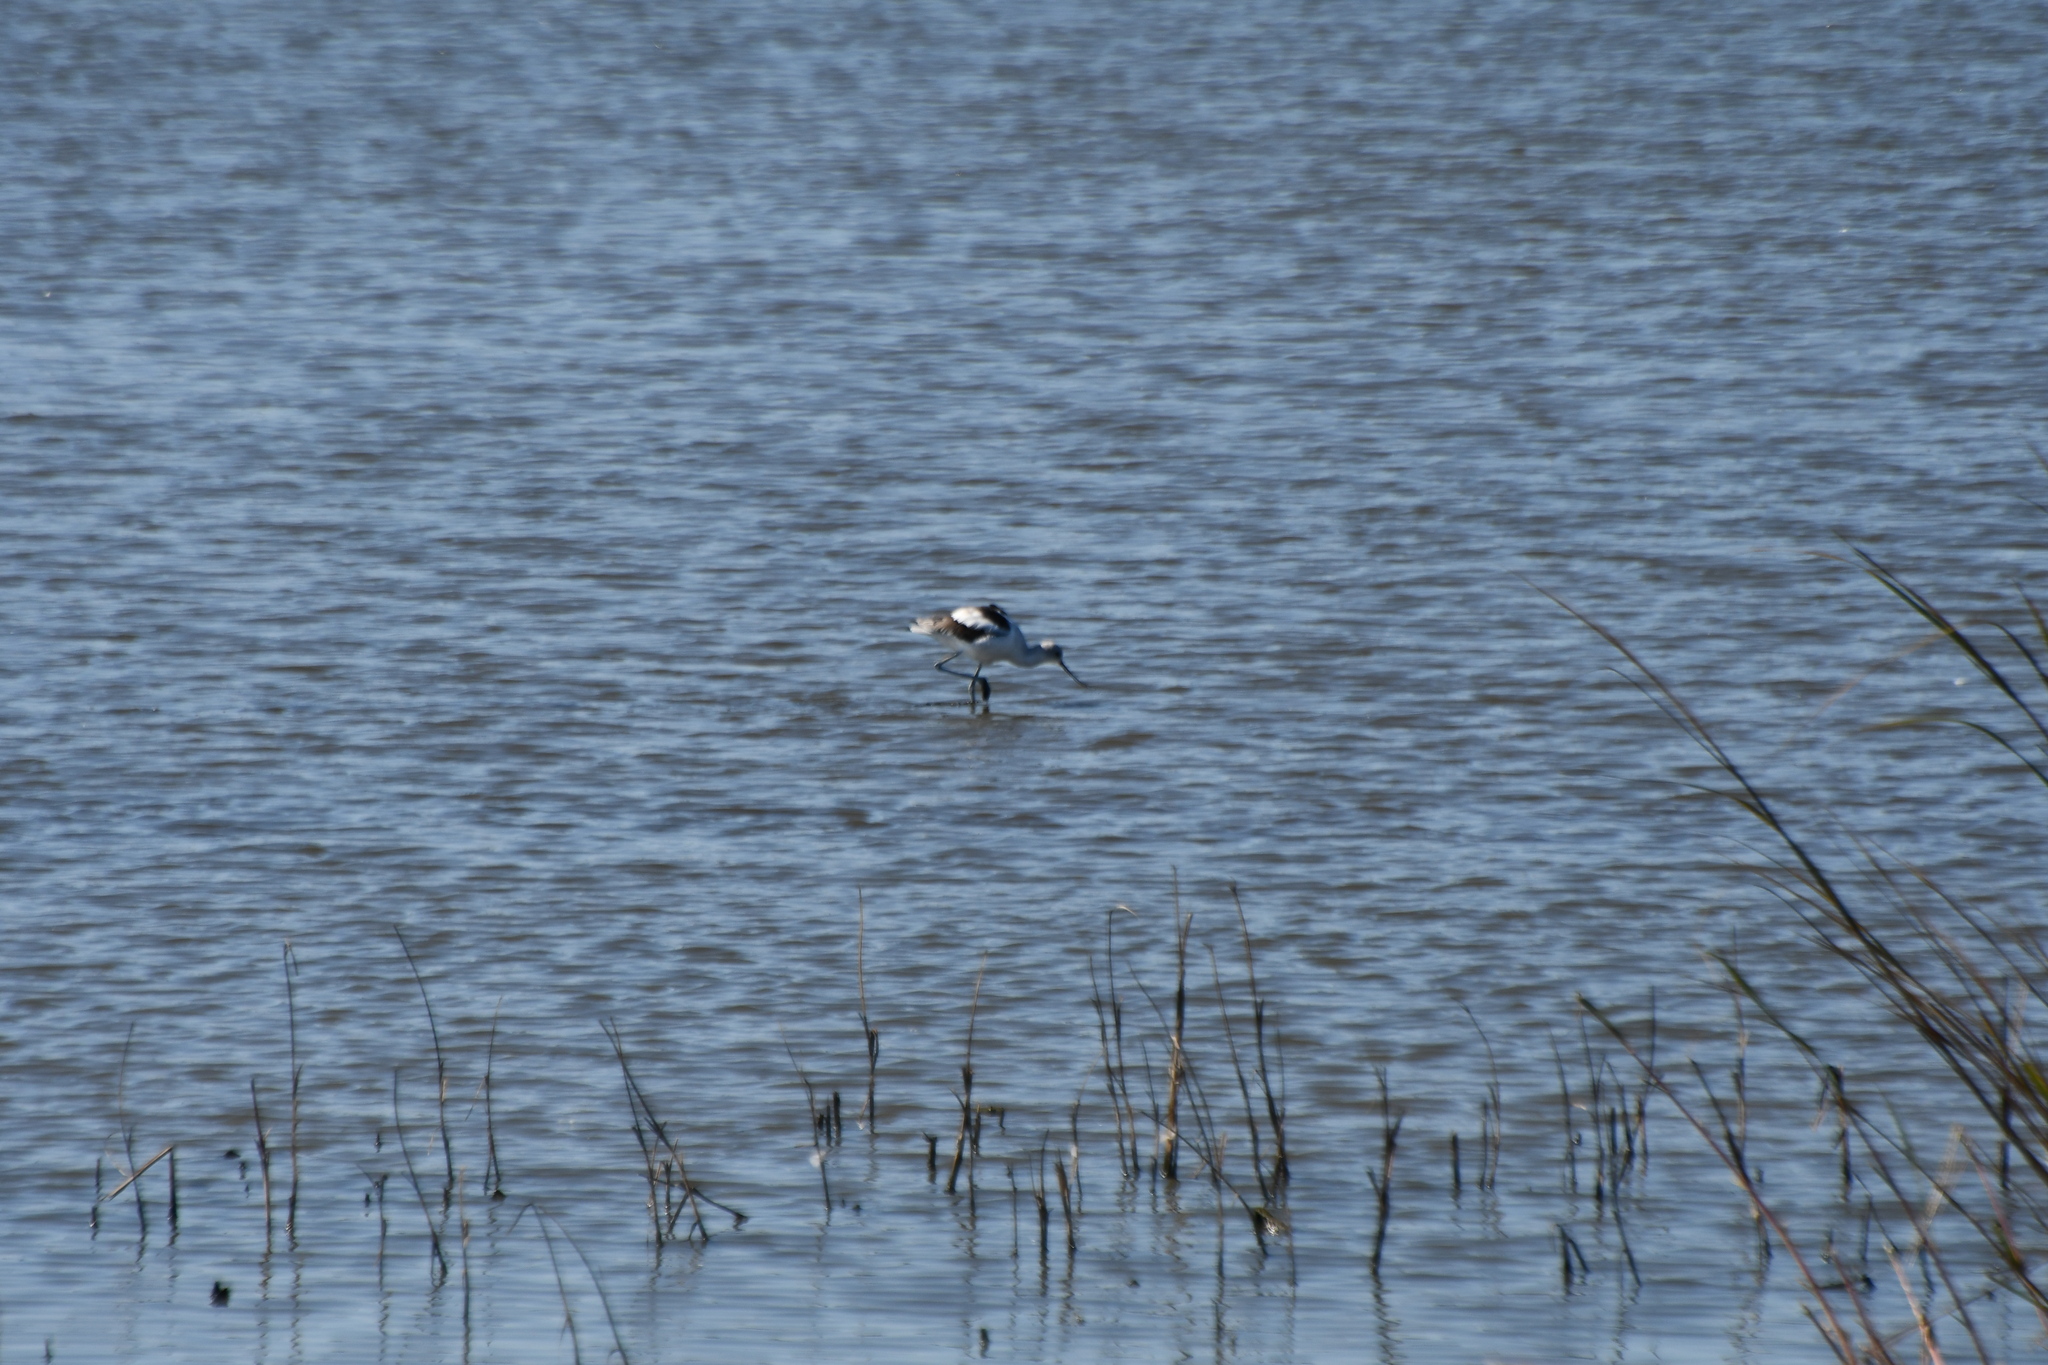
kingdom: Animalia
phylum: Chordata
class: Aves
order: Charadriiformes
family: Recurvirostridae
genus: Recurvirostra
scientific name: Recurvirostra americana
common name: American avocet
